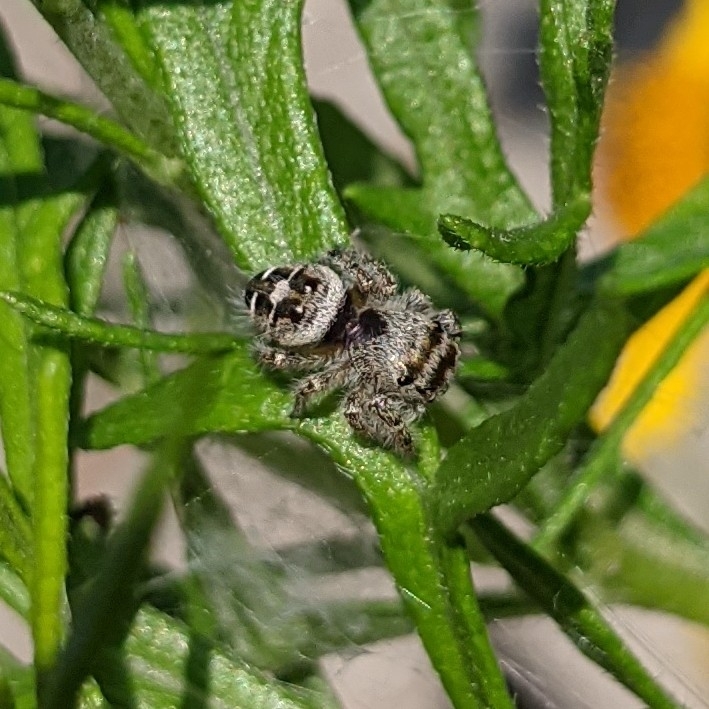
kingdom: Animalia
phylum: Arthropoda
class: Arachnida
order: Araneae
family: Salticidae
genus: Phidippus
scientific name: Phidippus carolinensis
